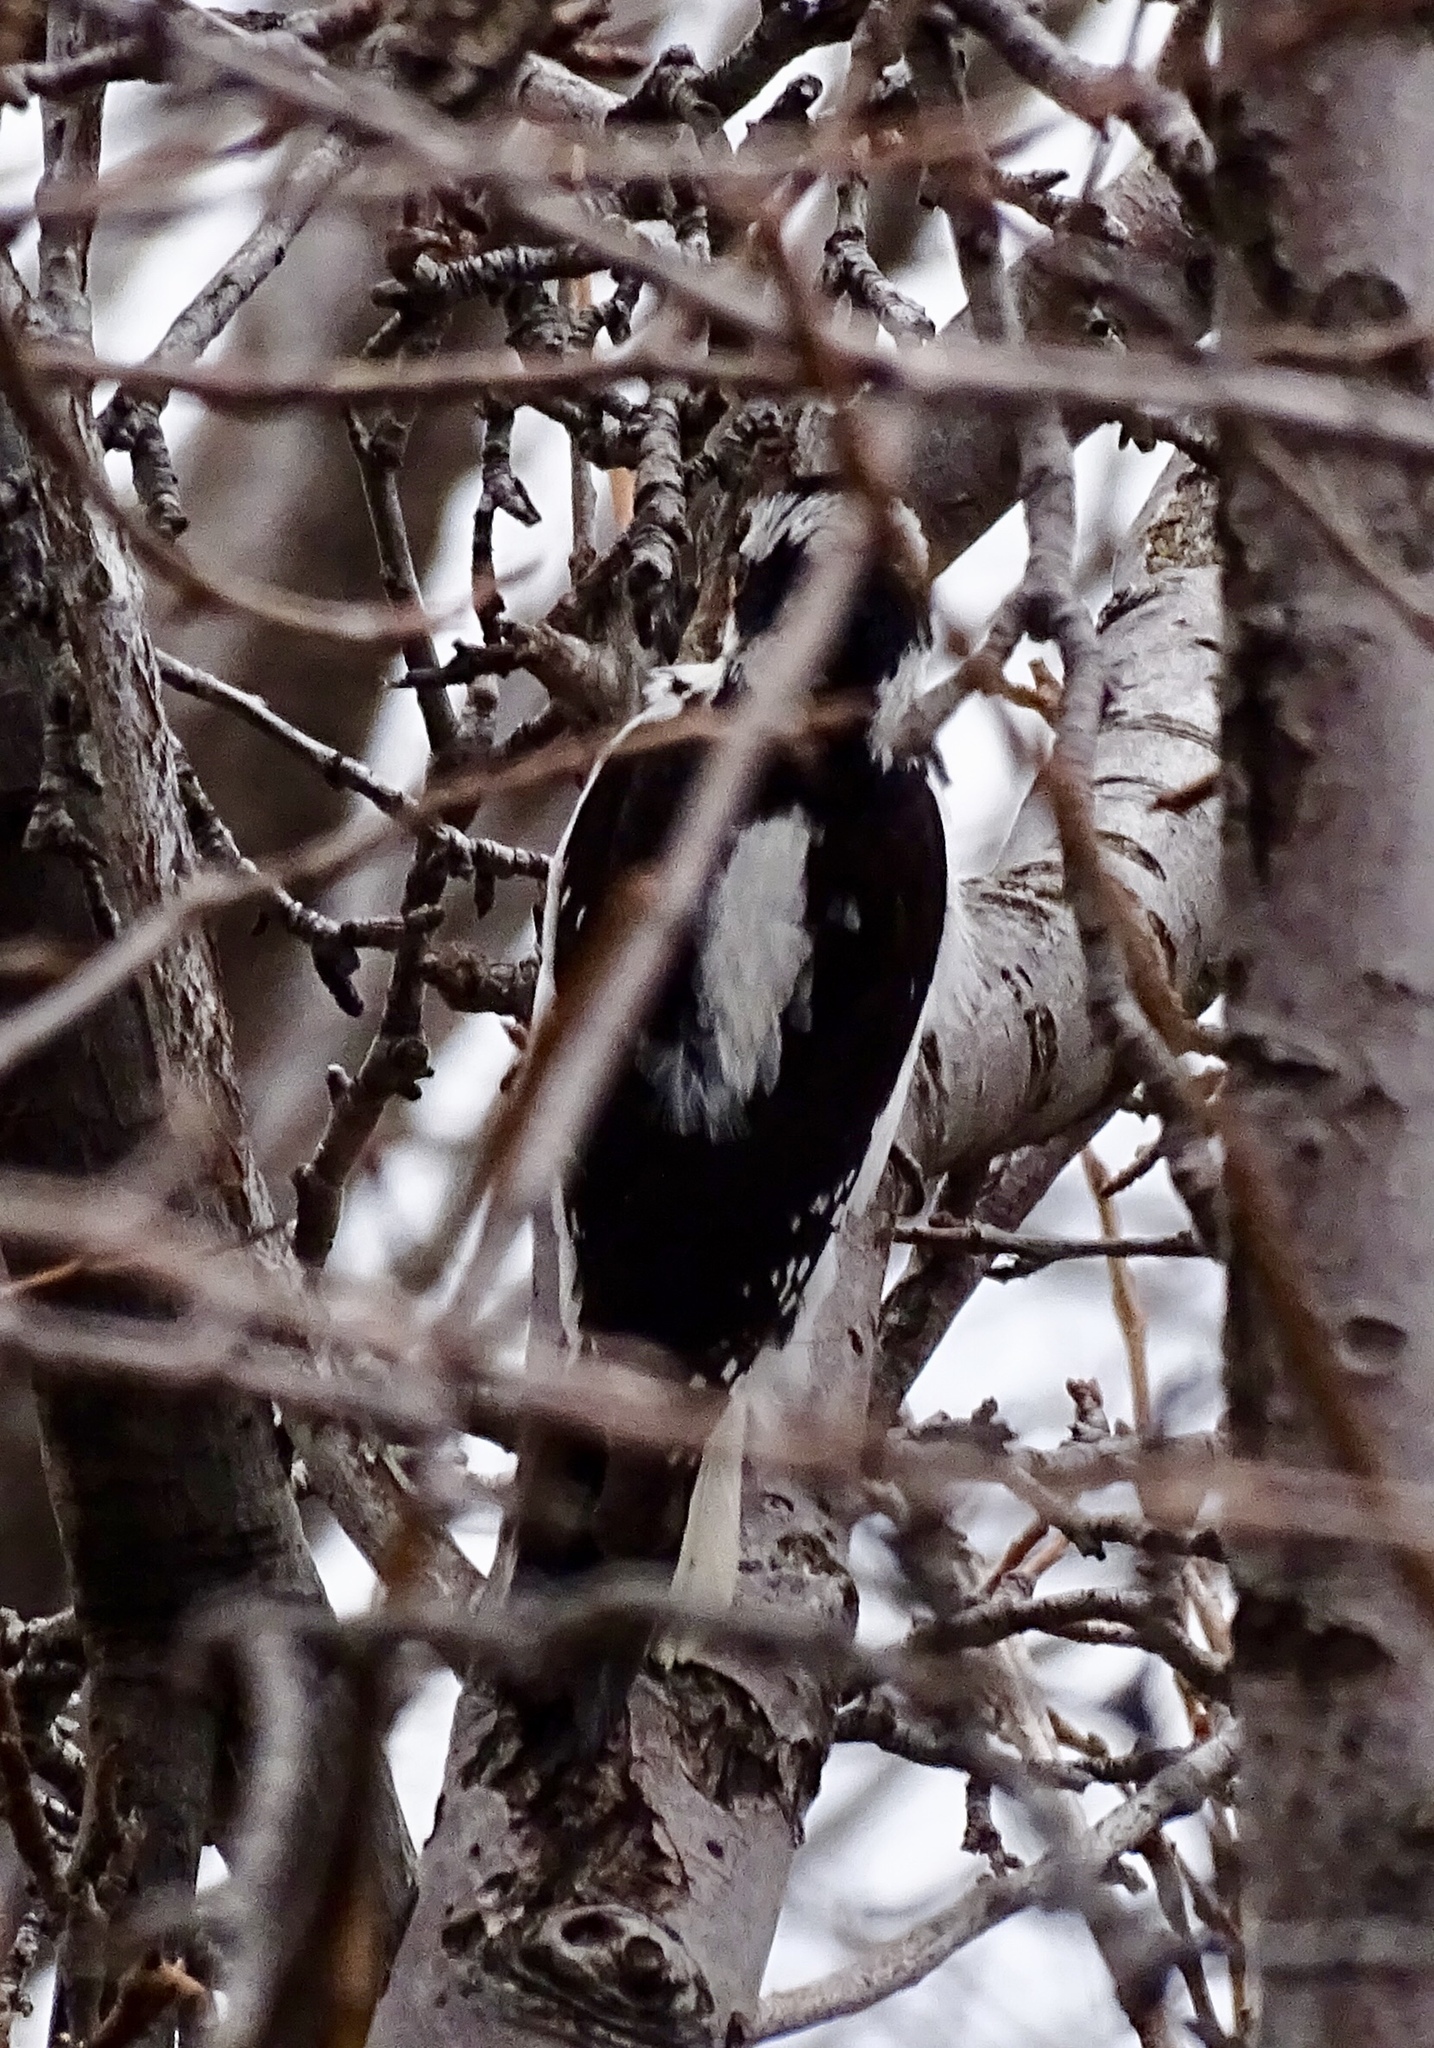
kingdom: Animalia
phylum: Chordata
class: Aves
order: Piciformes
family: Picidae
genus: Leuconotopicus
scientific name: Leuconotopicus villosus
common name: Hairy woodpecker
